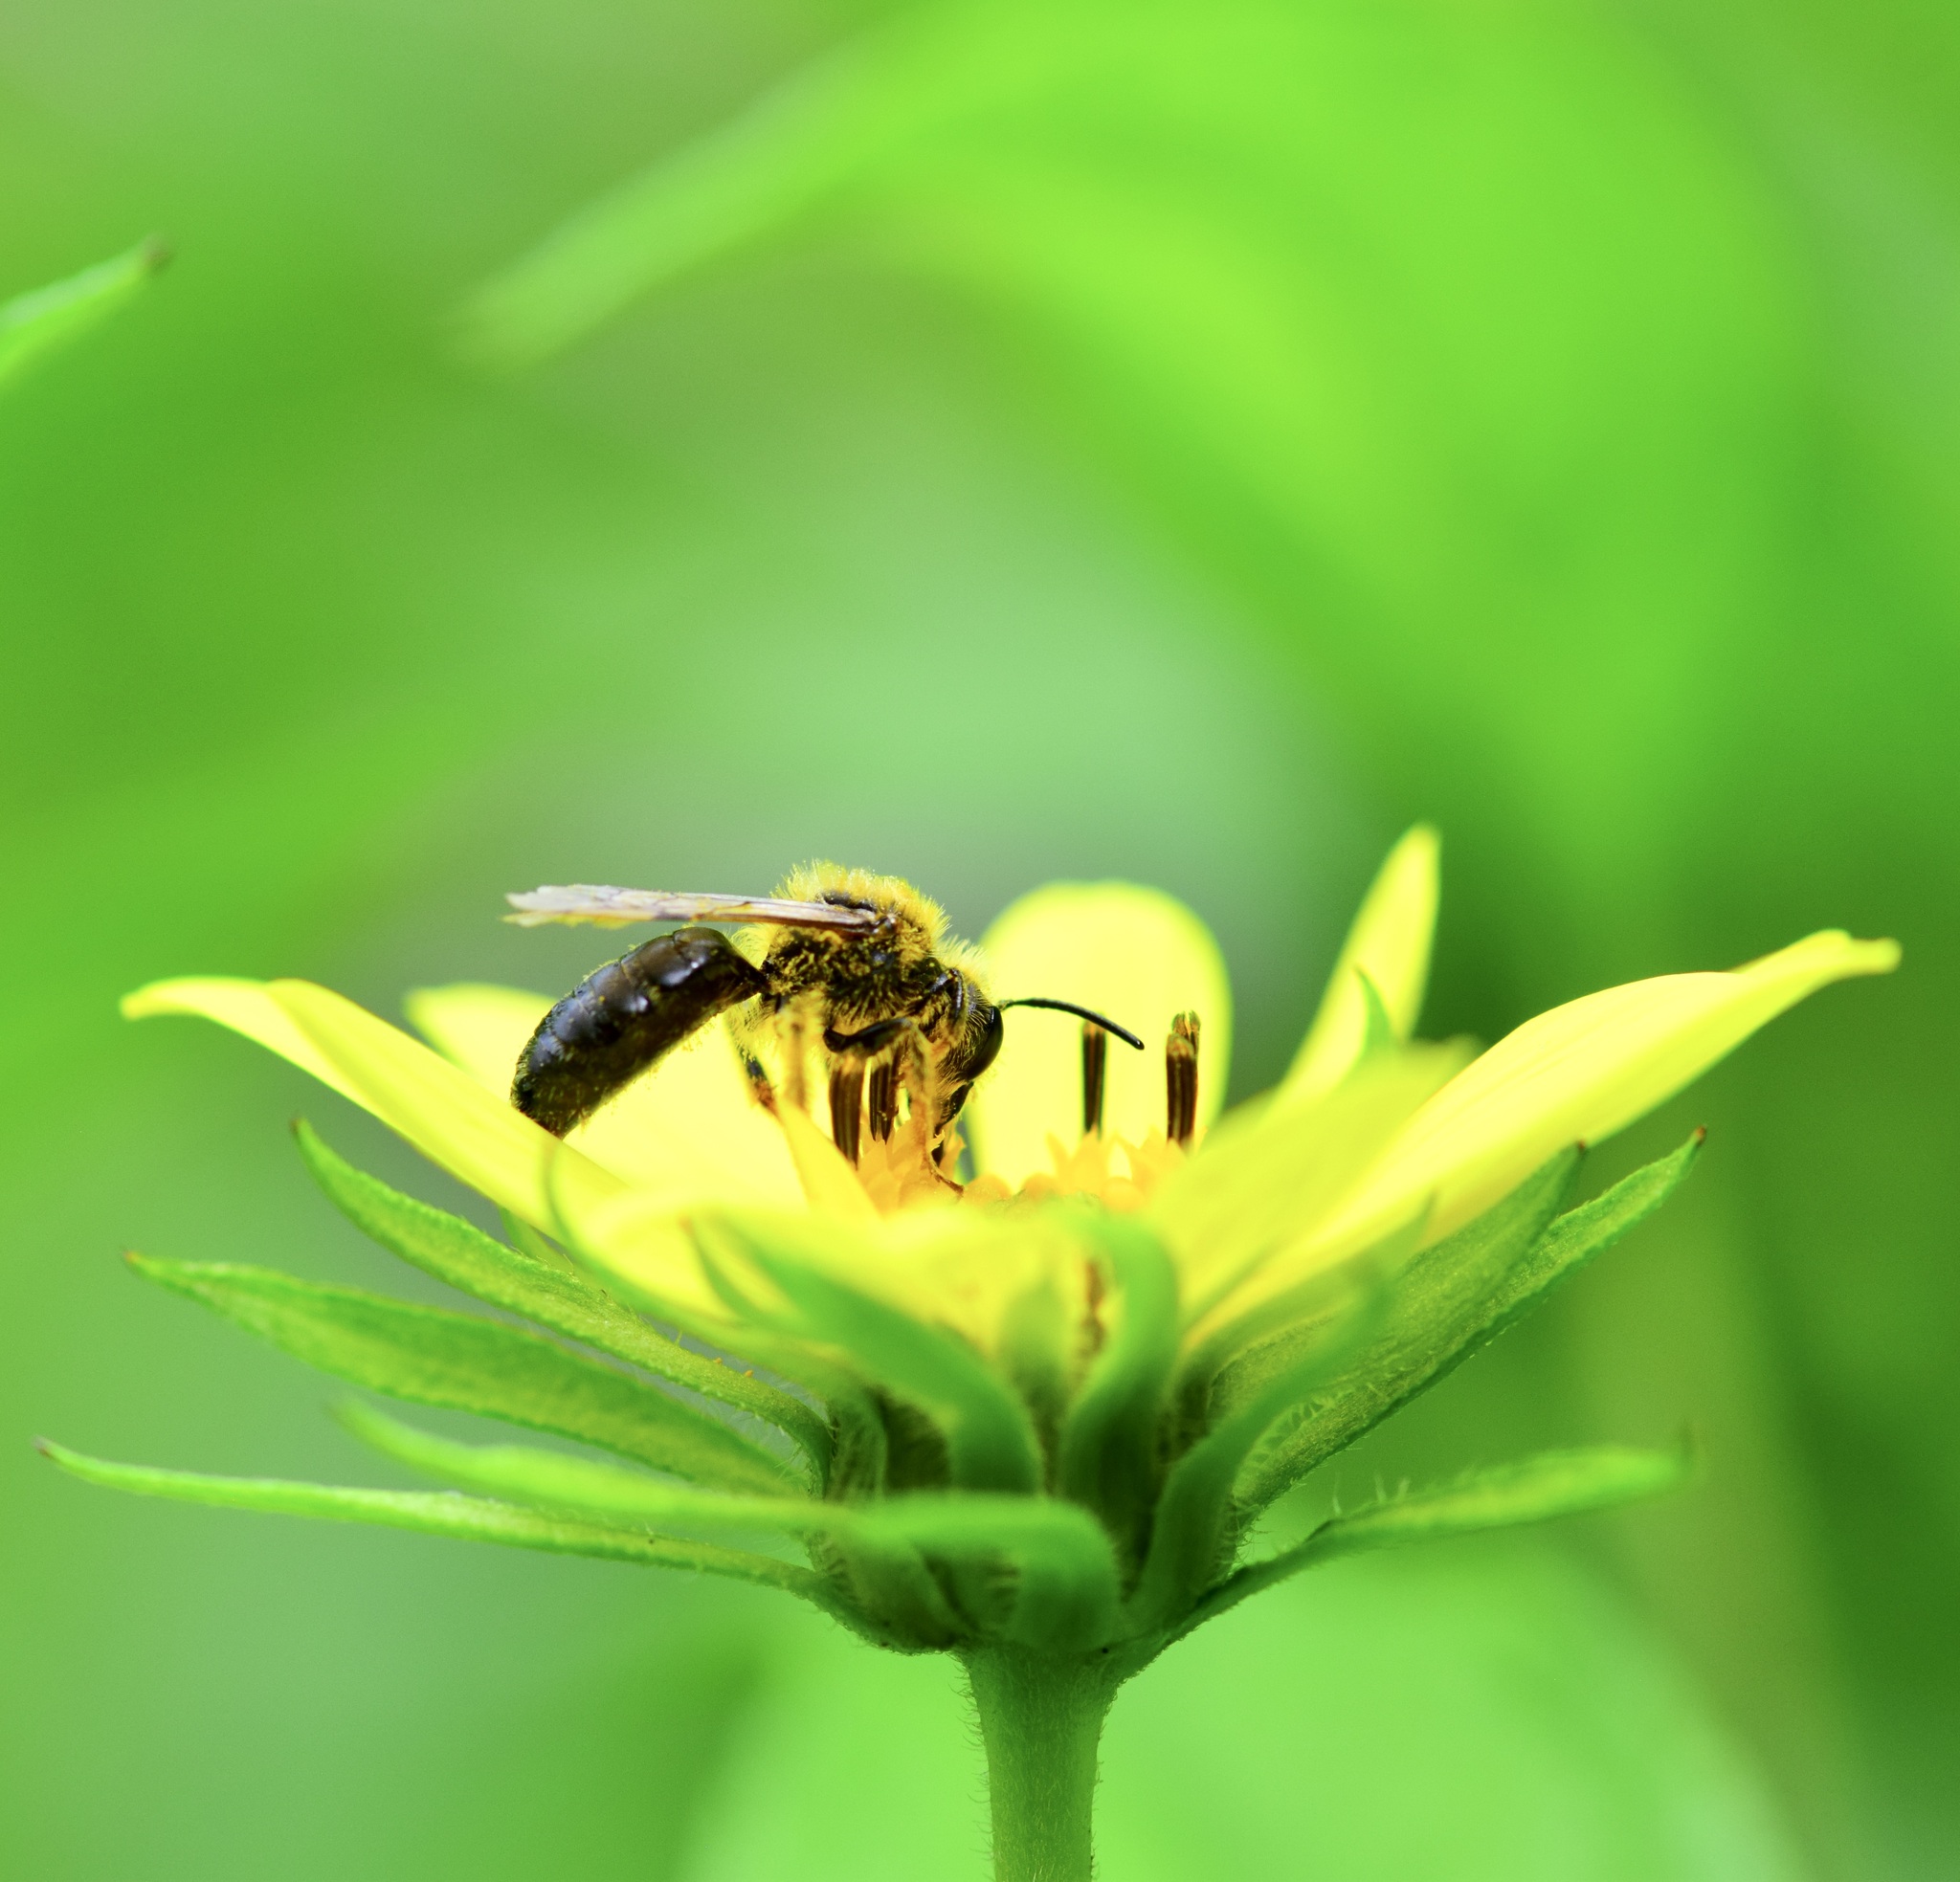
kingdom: Animalia
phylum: Arthropoda
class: Insecta
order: Hymenoptera
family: Andrenidae
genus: Andrena
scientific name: Andrena helianthi
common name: Sunflower mining bee
